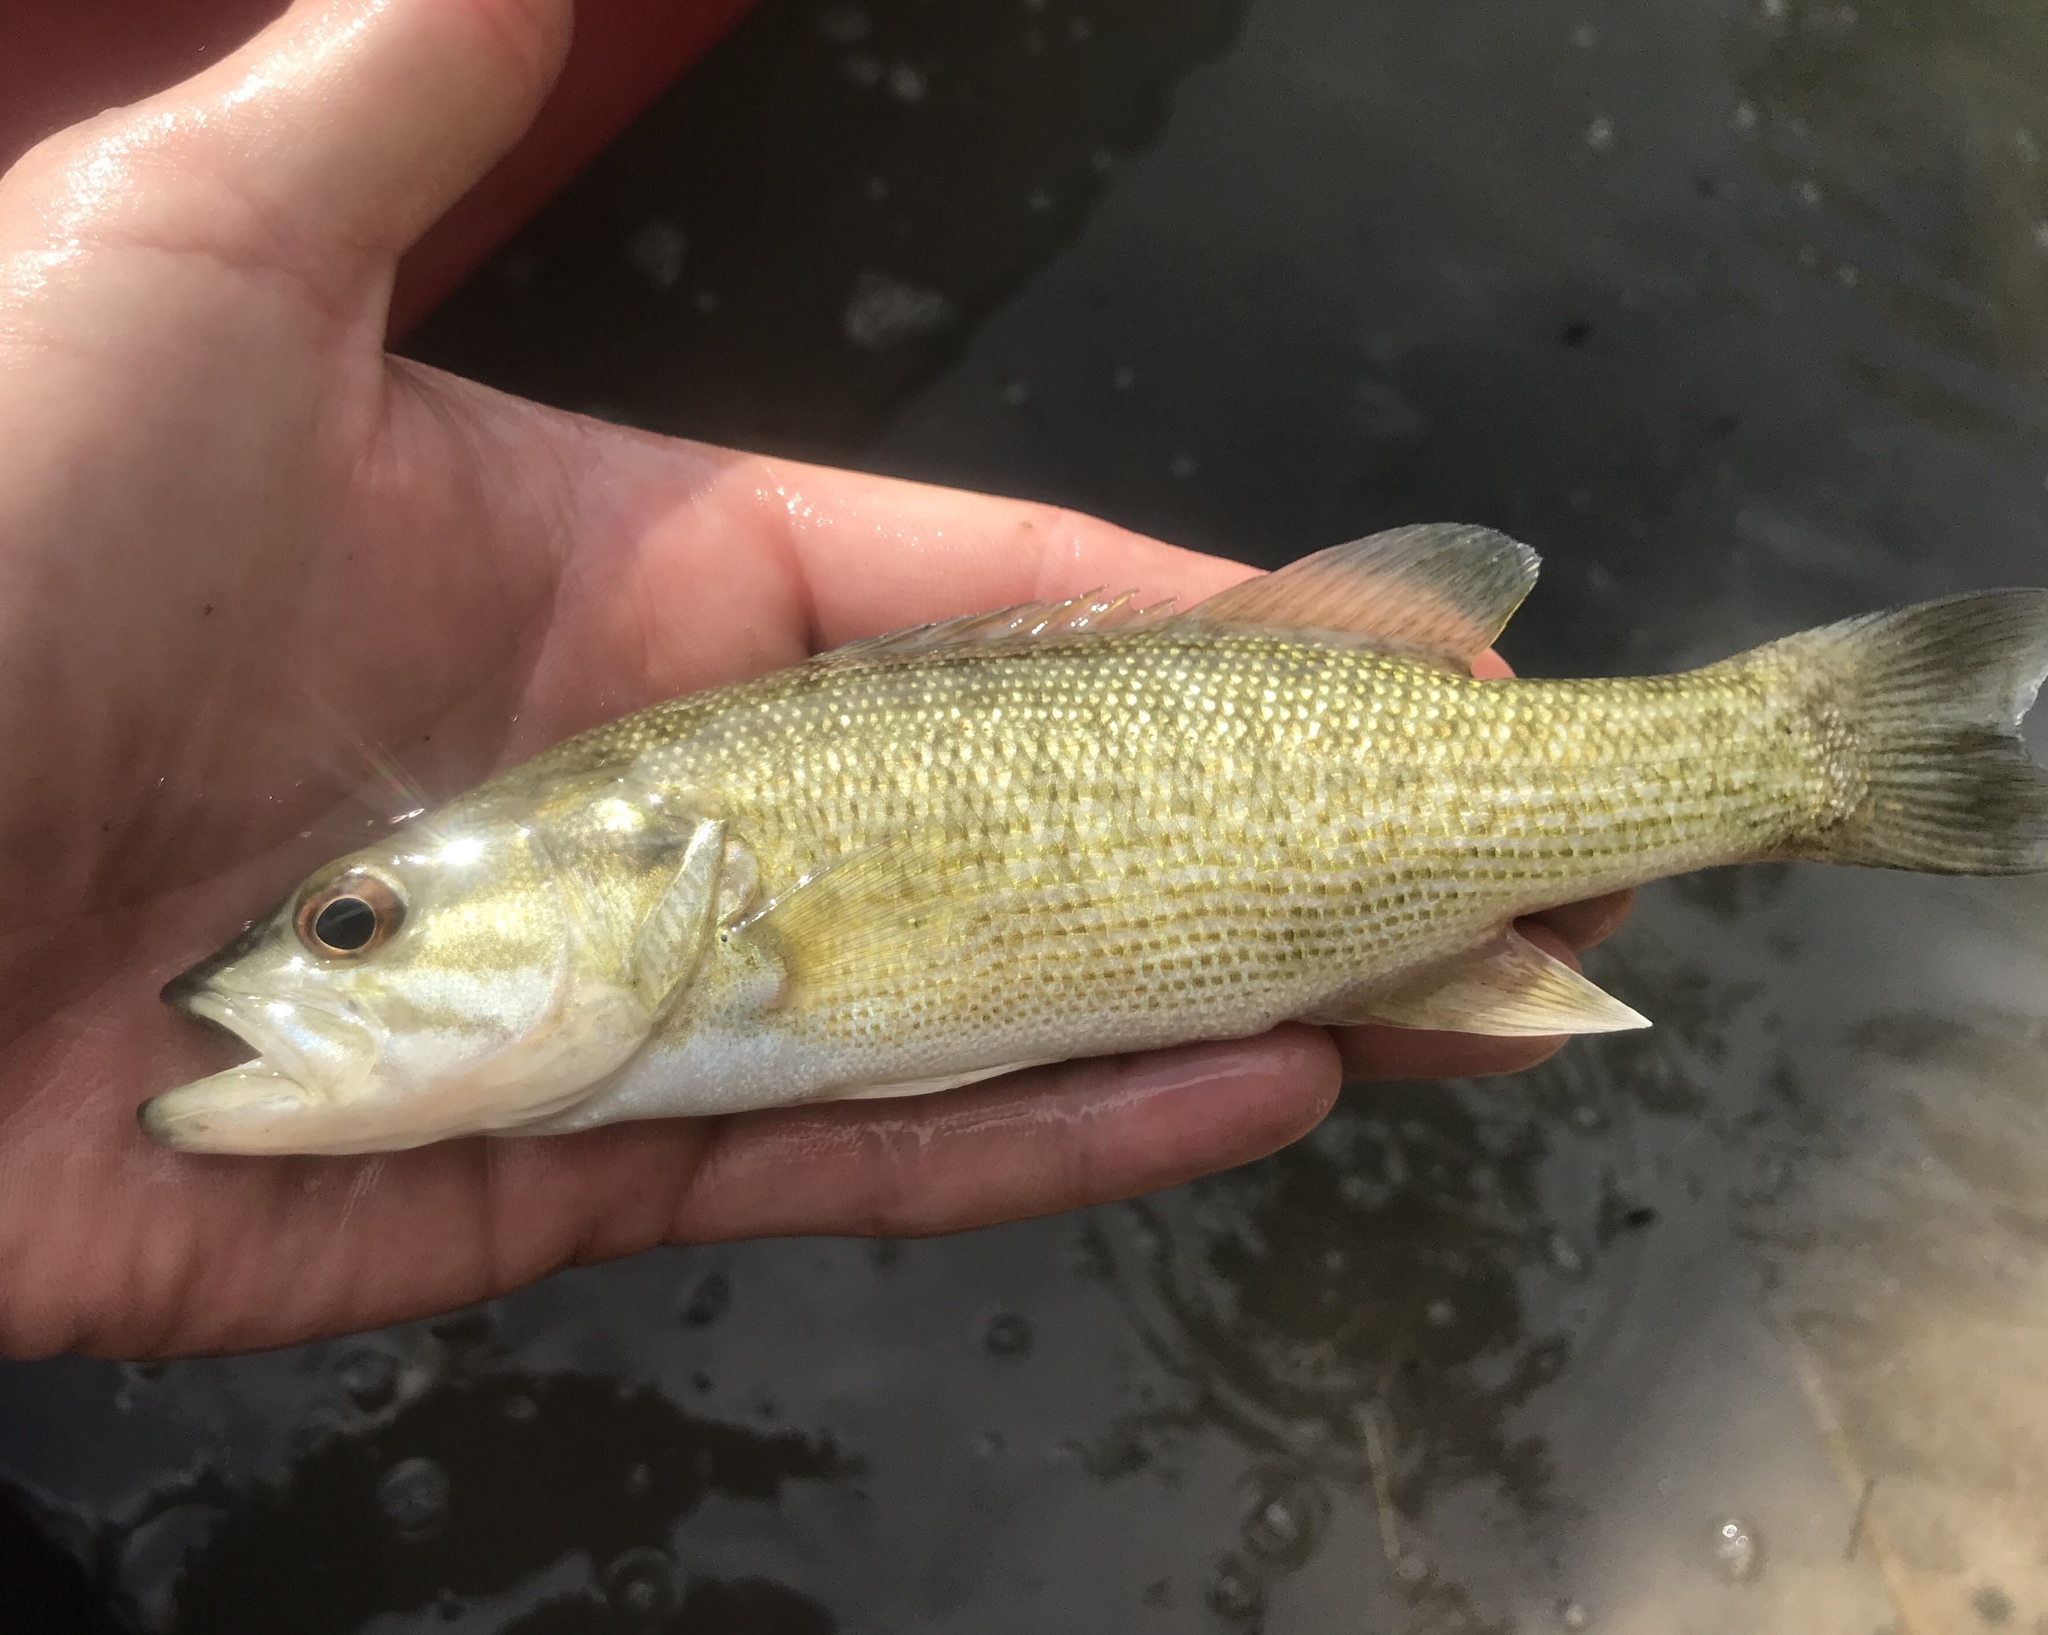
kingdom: Animalia
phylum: Chordata
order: Perciformes
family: Centrarchidae
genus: Micropterus
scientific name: Micropterus treculii
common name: Guadalupe bass
